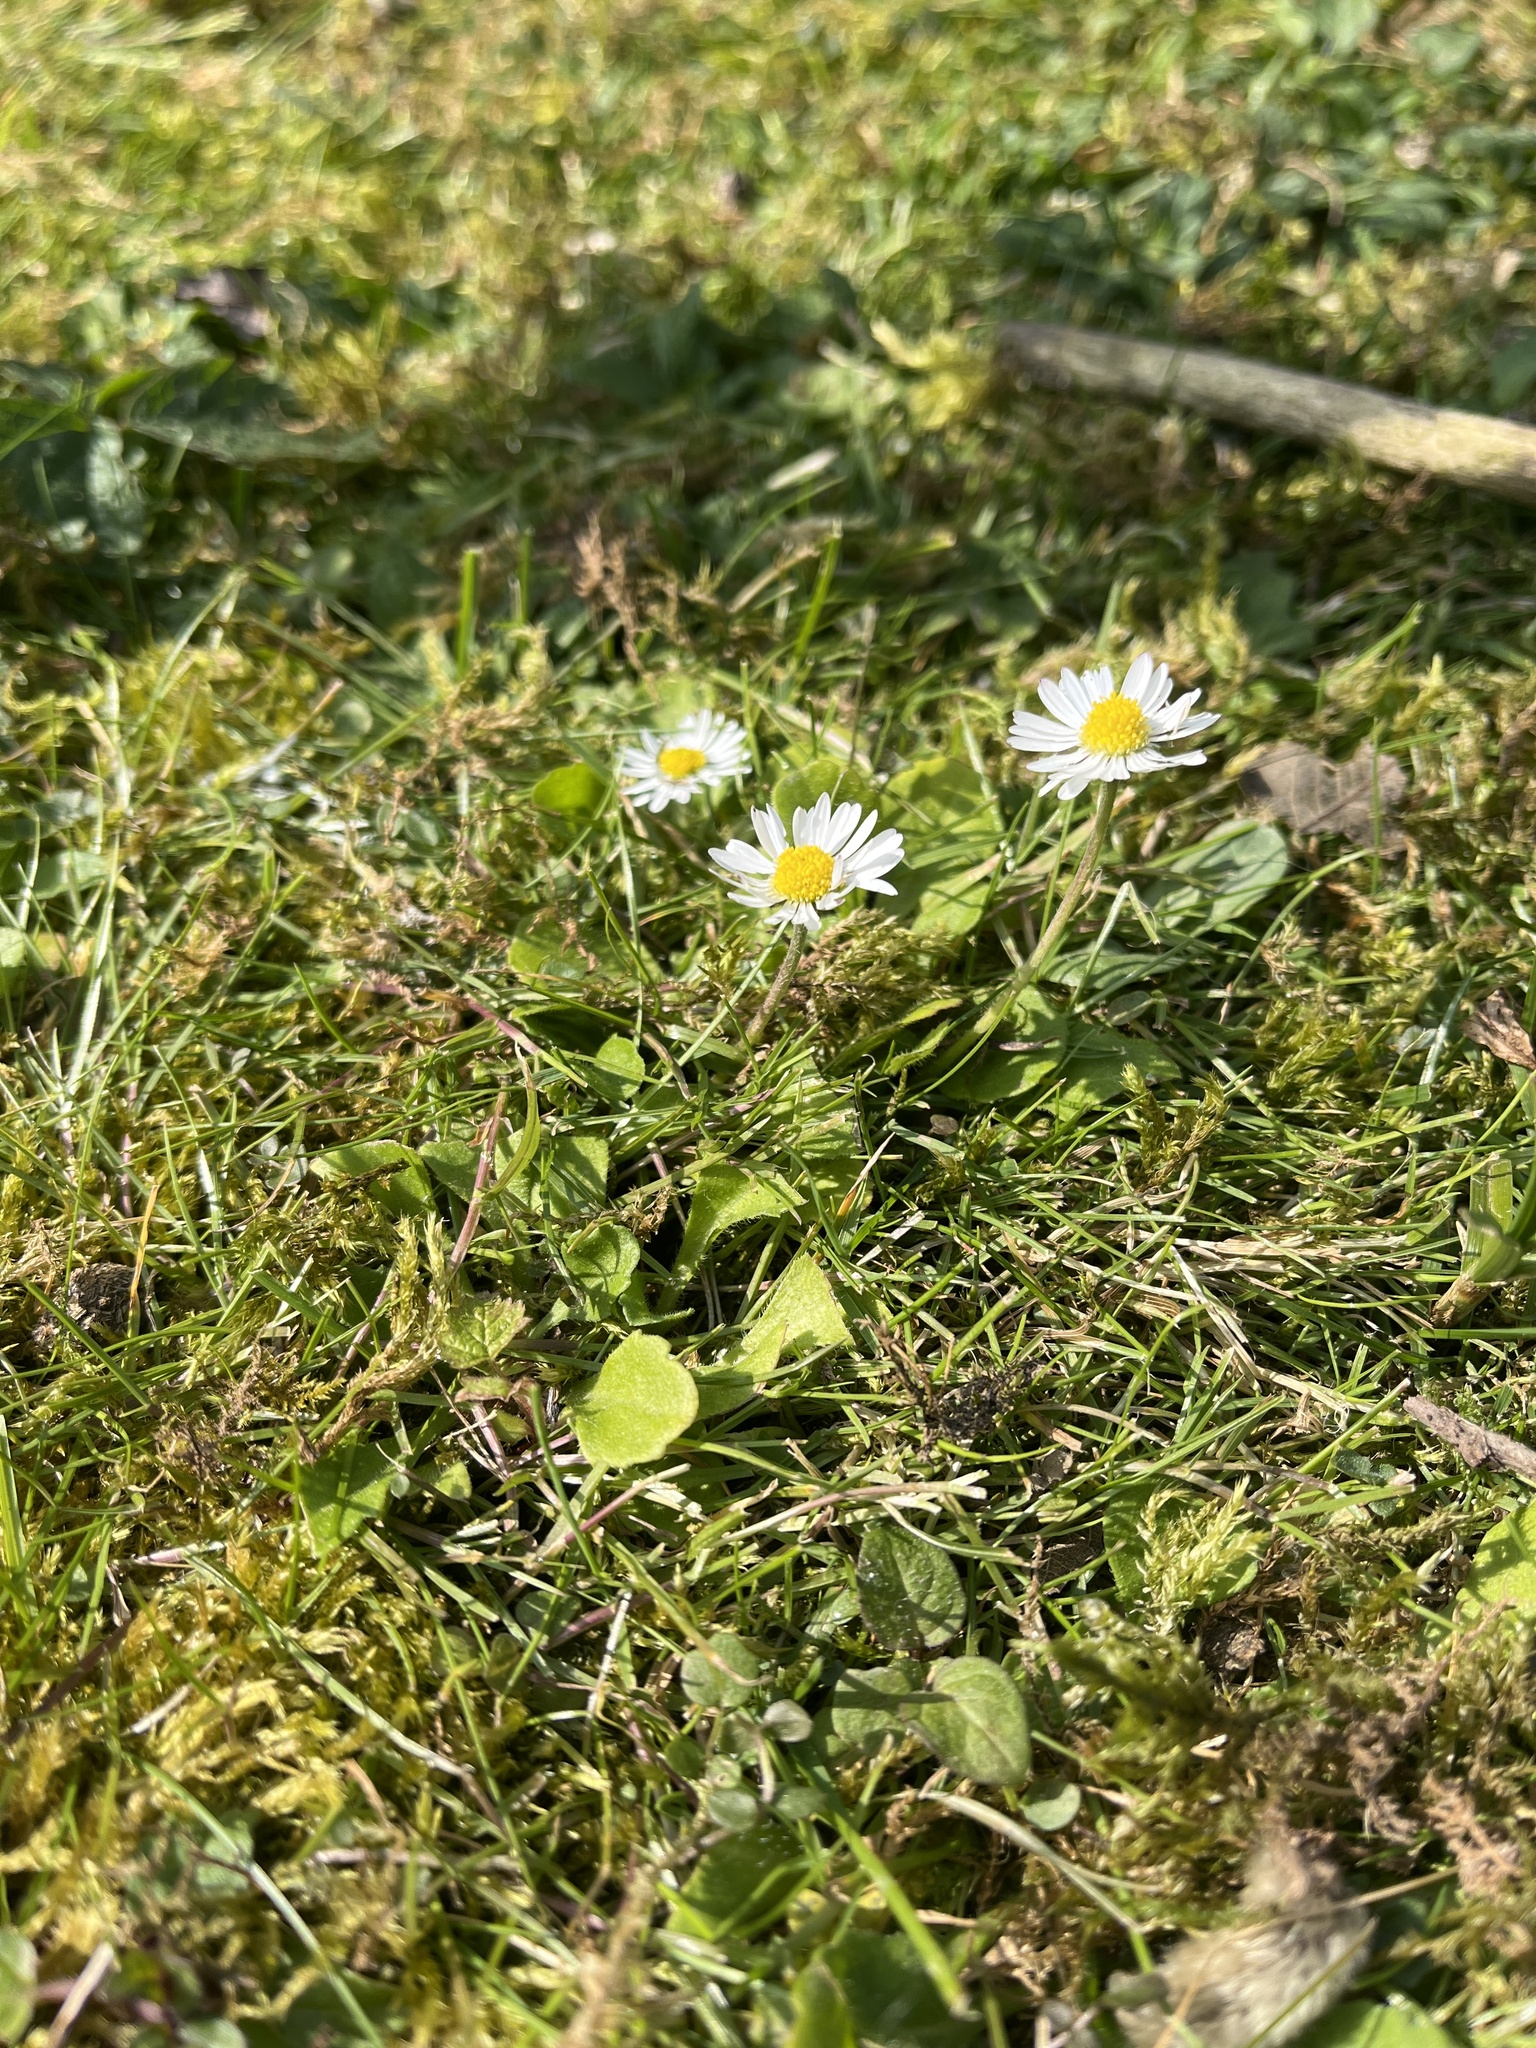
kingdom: Plantae
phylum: Tracheophyta
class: Magnoliopsida
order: Asterales
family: Asteraceae
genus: Bellis
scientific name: Bellis perennis
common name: Lawndaisy
